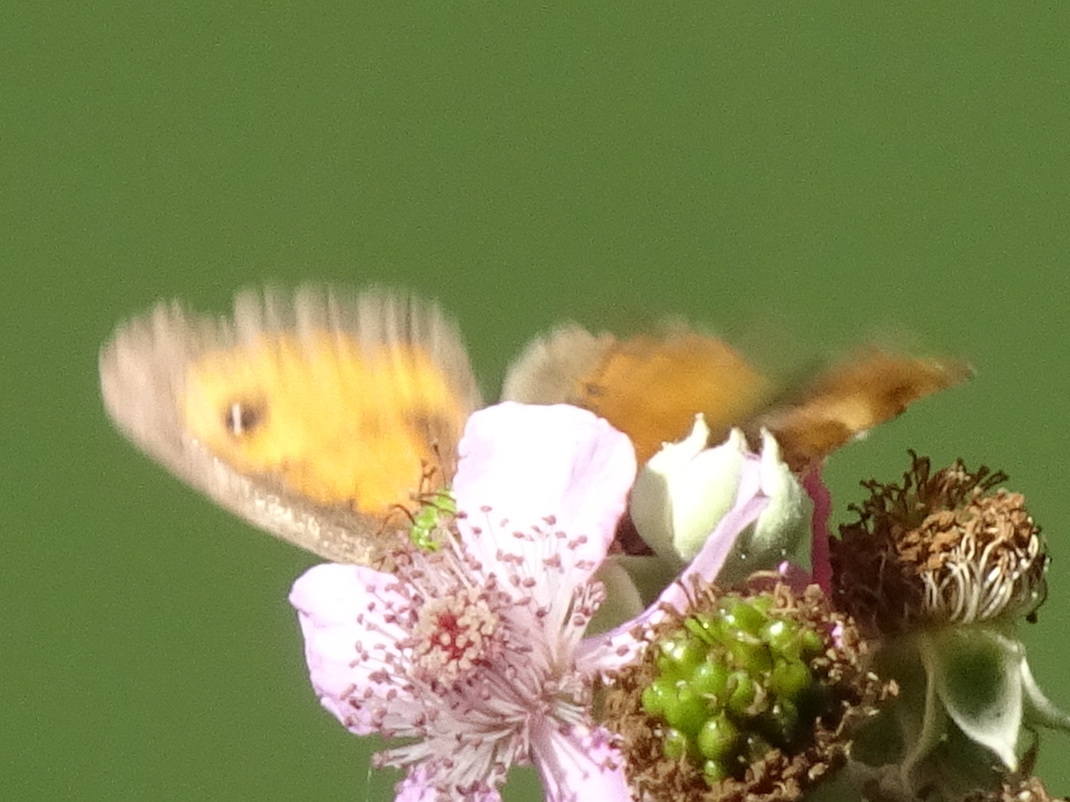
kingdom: Animalia
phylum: Arthropoda
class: Insecta
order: Lepidoptera
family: Nymphalidae
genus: Pyronia
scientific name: Pyronia bathseba
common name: Spanish gatekeeper
